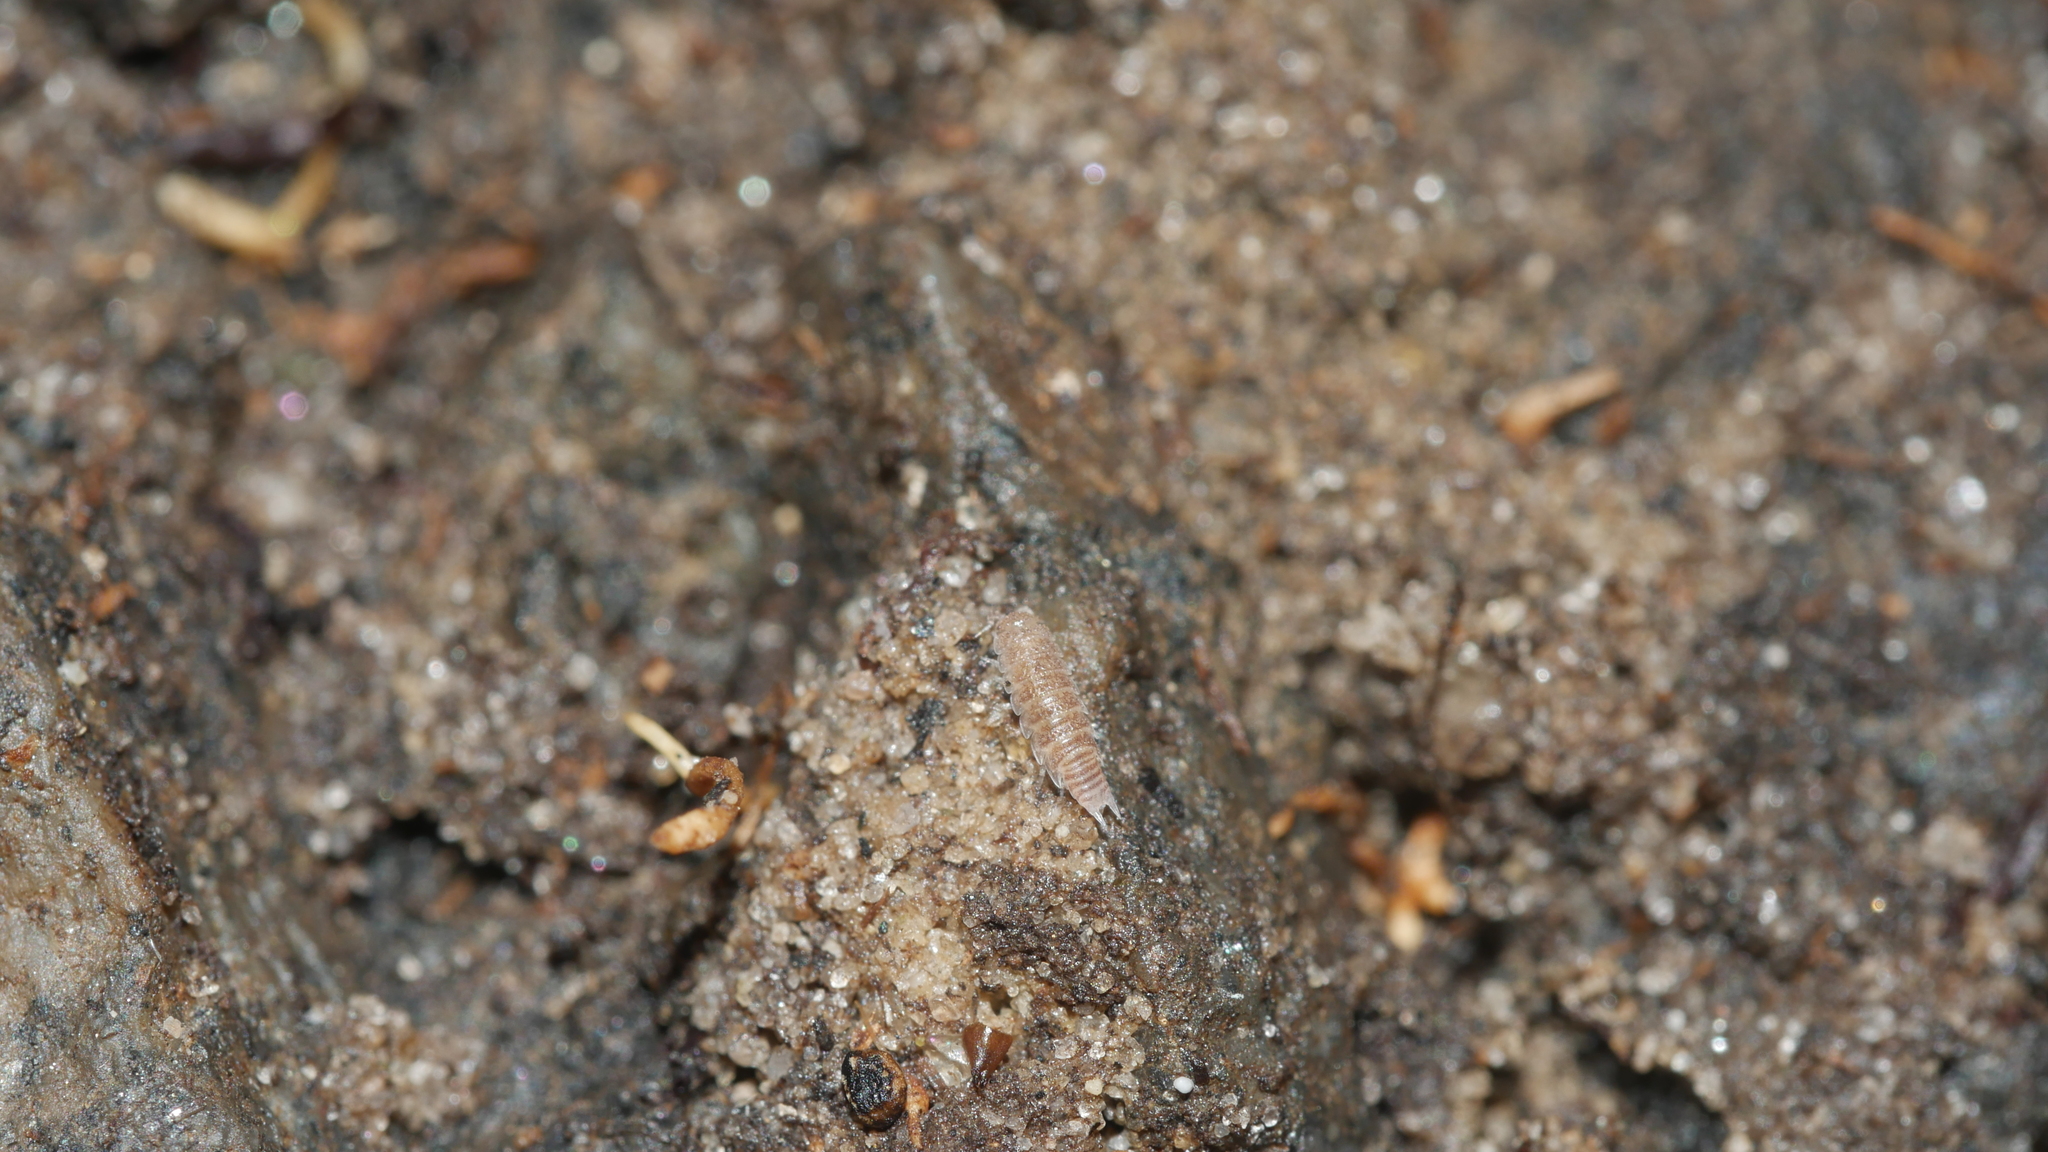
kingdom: Animalia
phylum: Arthropoda
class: Malacostraca
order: Isopoda
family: Trichoniscidae
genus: Miktoniscus
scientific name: Miktoniscus spinosus
